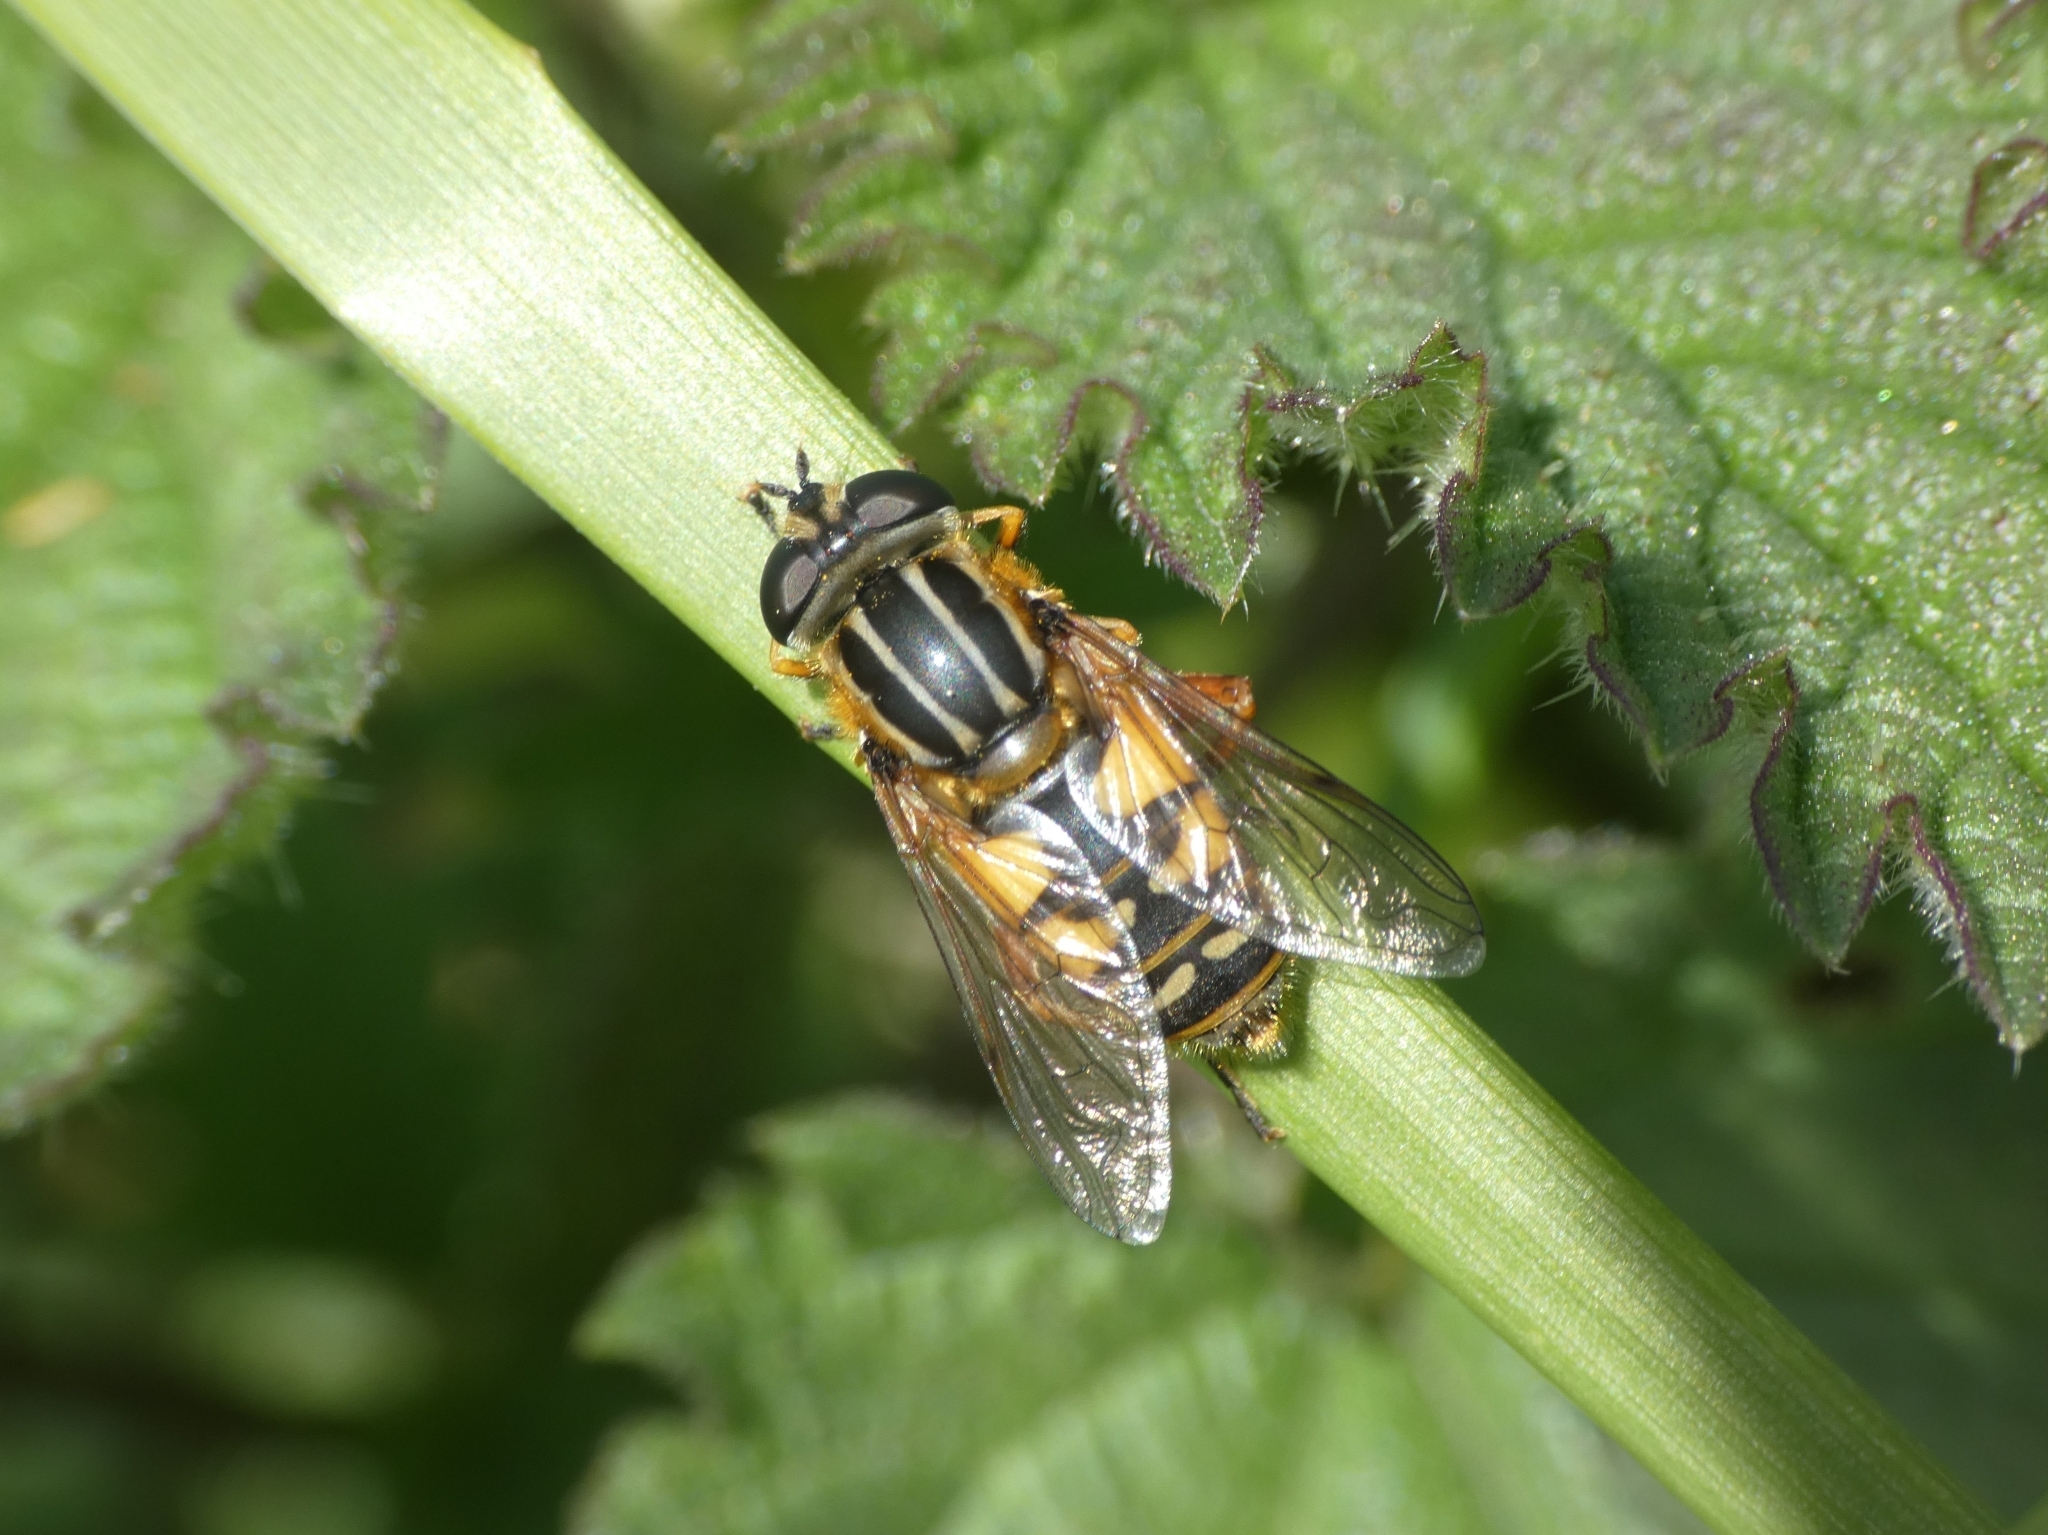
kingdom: Animalia
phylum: Arthropoda
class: Insecta
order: Diptera
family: Syrphidae
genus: Helophilus
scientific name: Helophilus pendulus
